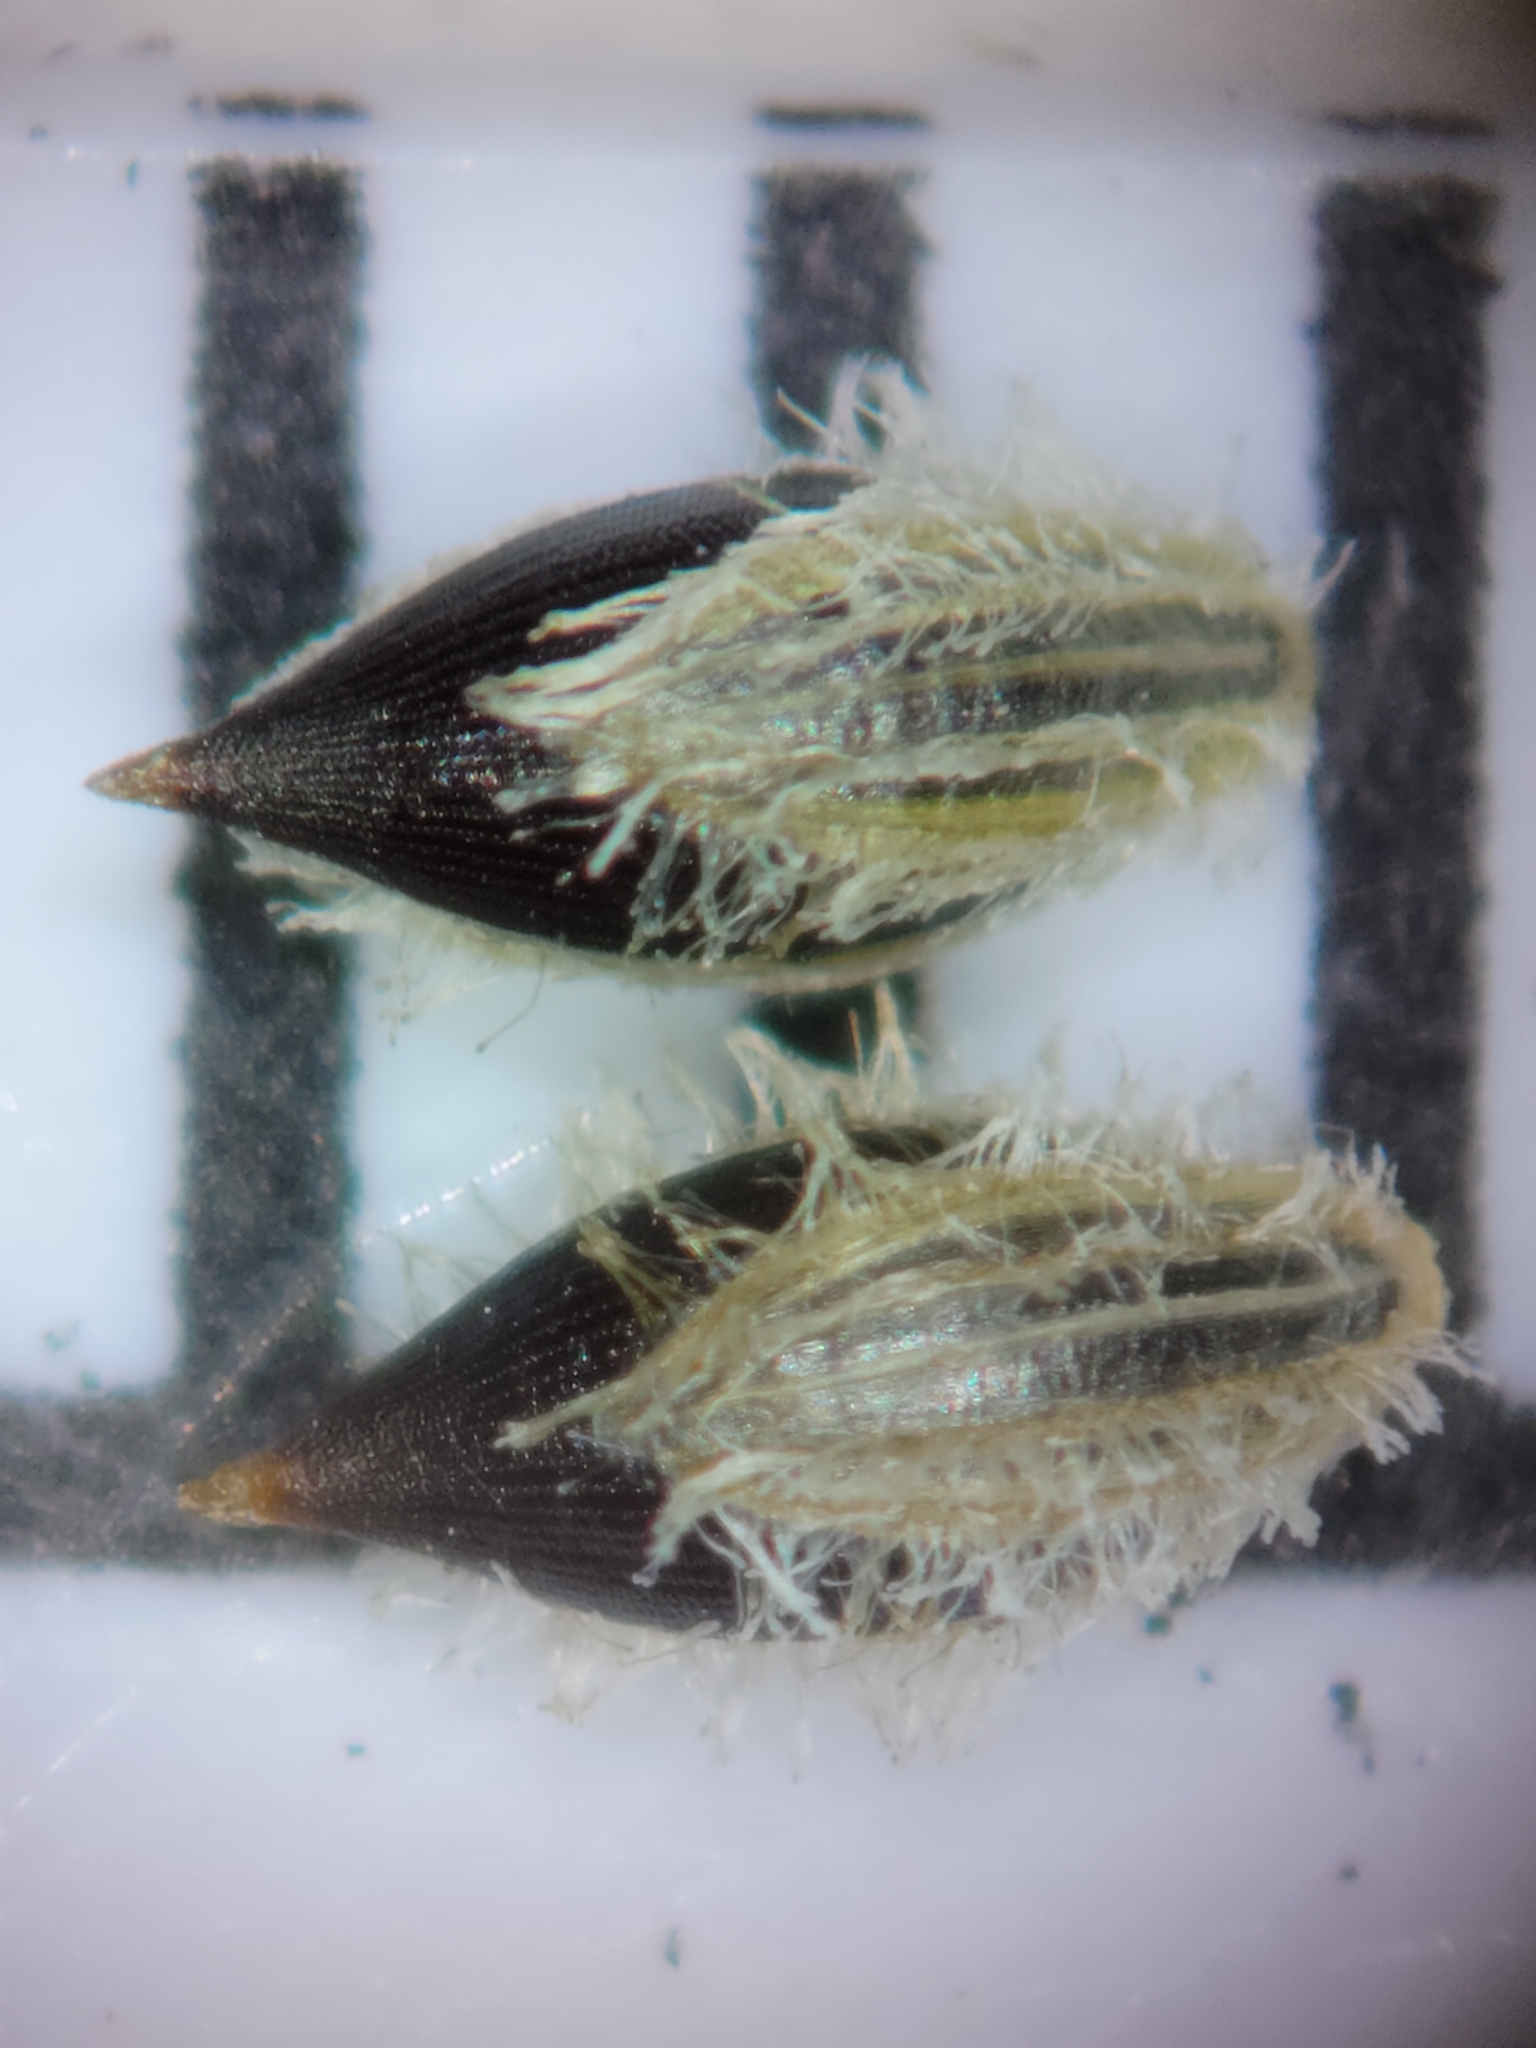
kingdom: Plantae
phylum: Tracheophyta
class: Liliopsida
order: Poales
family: Poaceae
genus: Digitaria
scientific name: Digitaria filiformis
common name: Slender crabgrass
